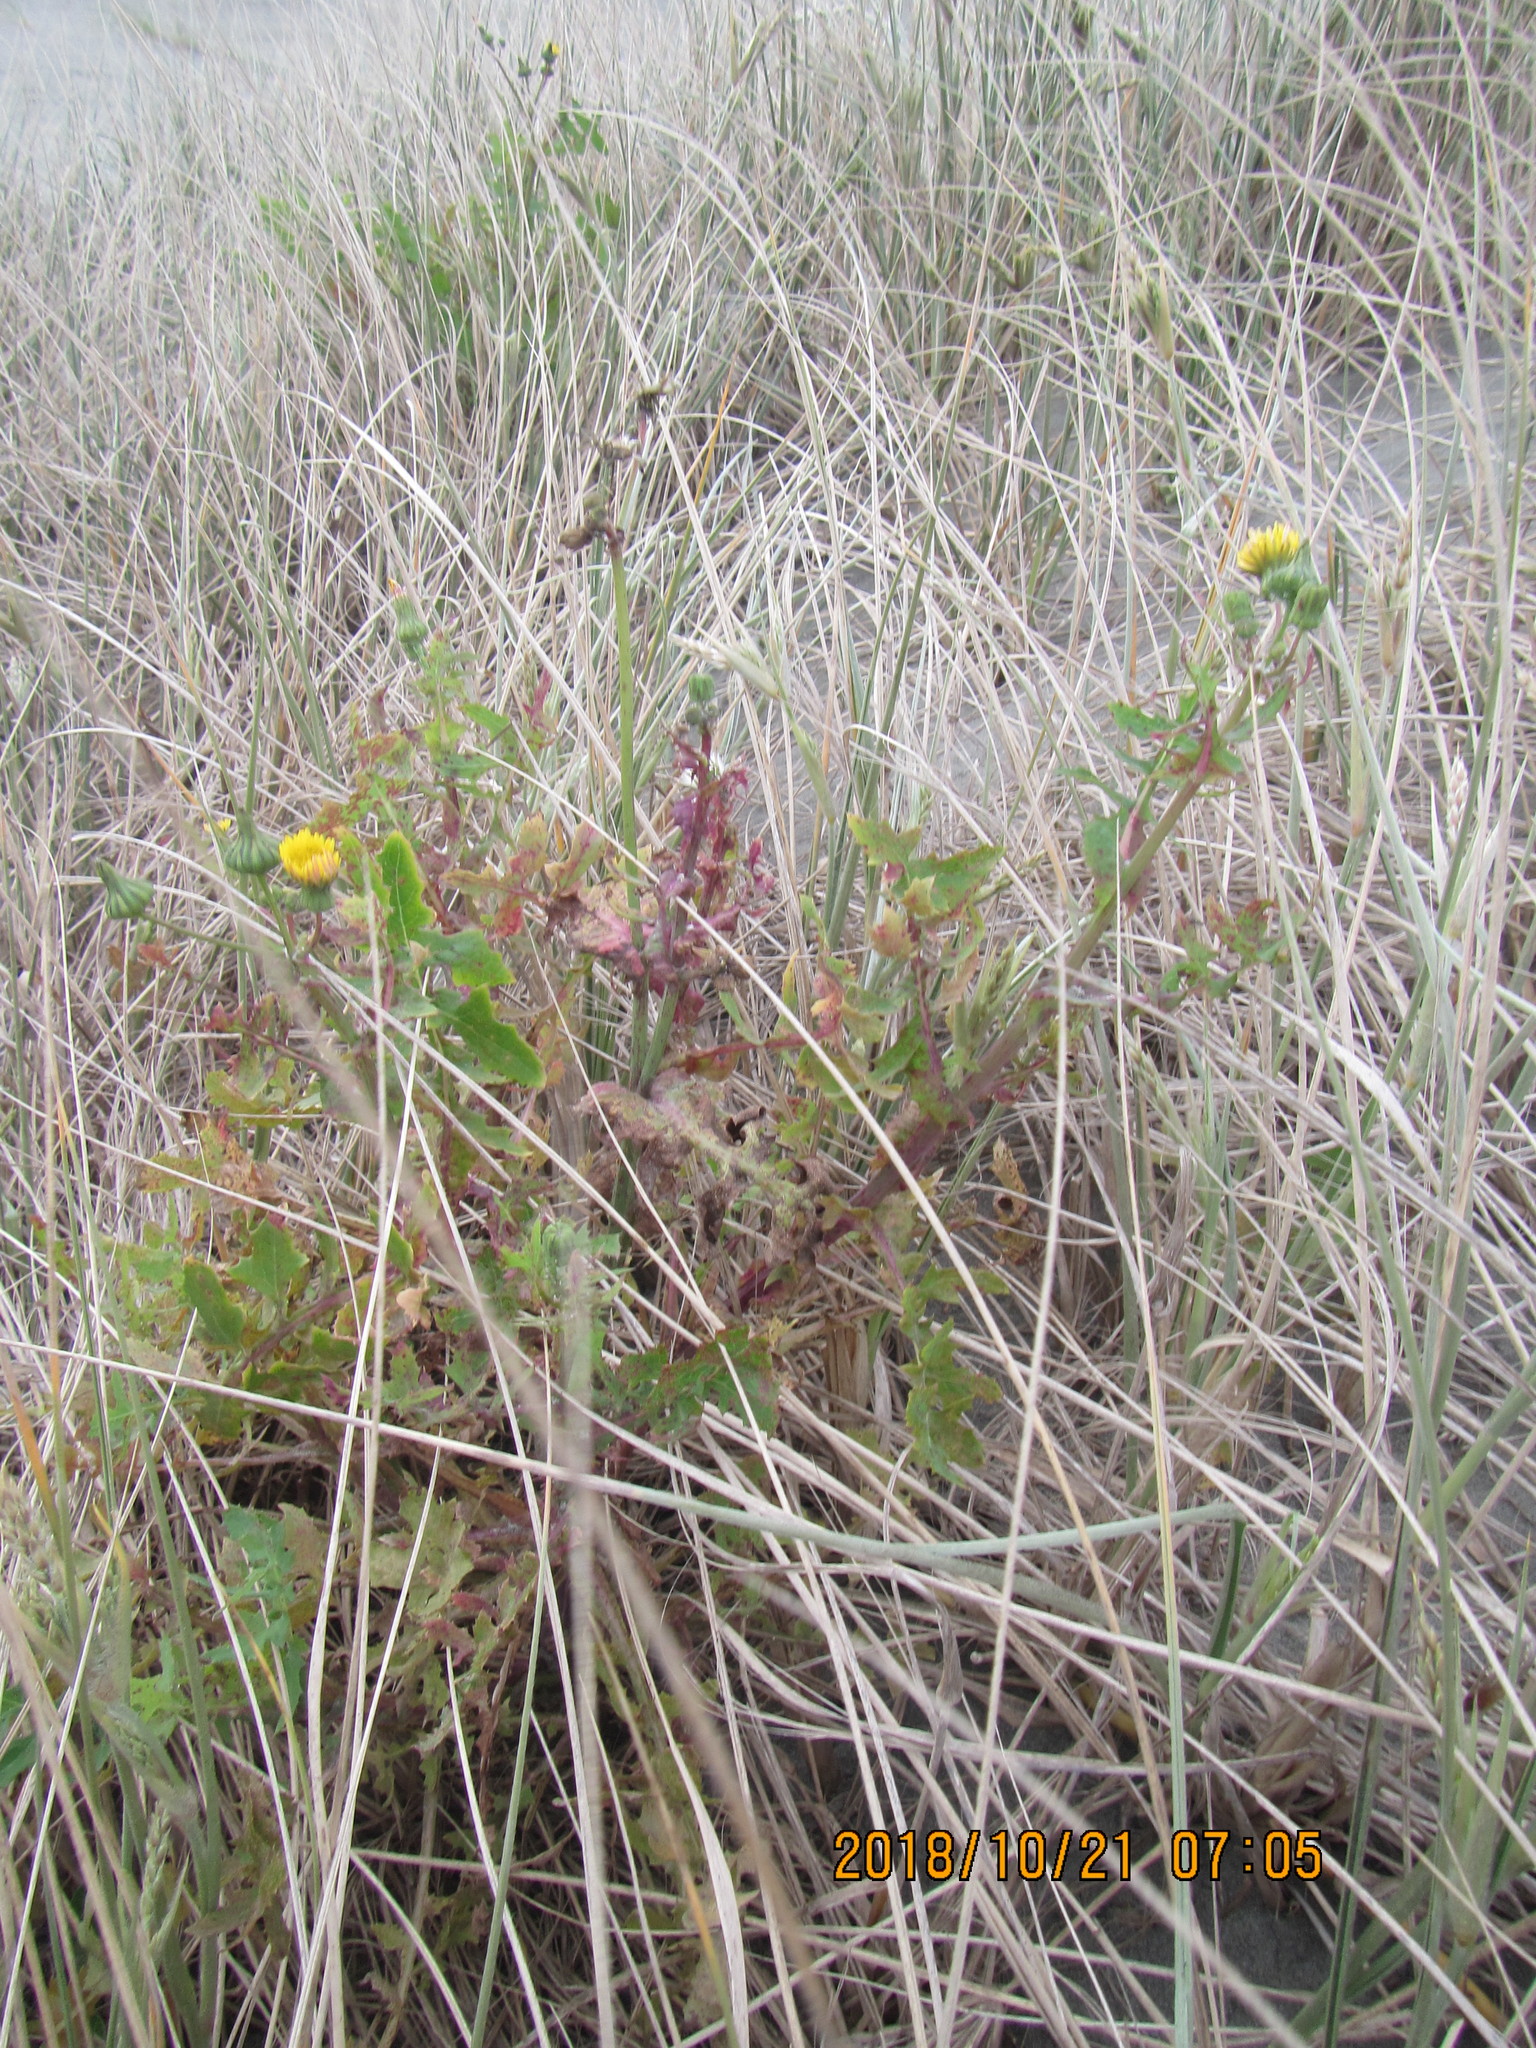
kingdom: Plantae
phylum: Tracheophyta
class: Magnoliopsida
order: Asterales
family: Asteraceae
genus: Sonchus
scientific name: Sonchus oleraceus
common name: Common sowthistle
